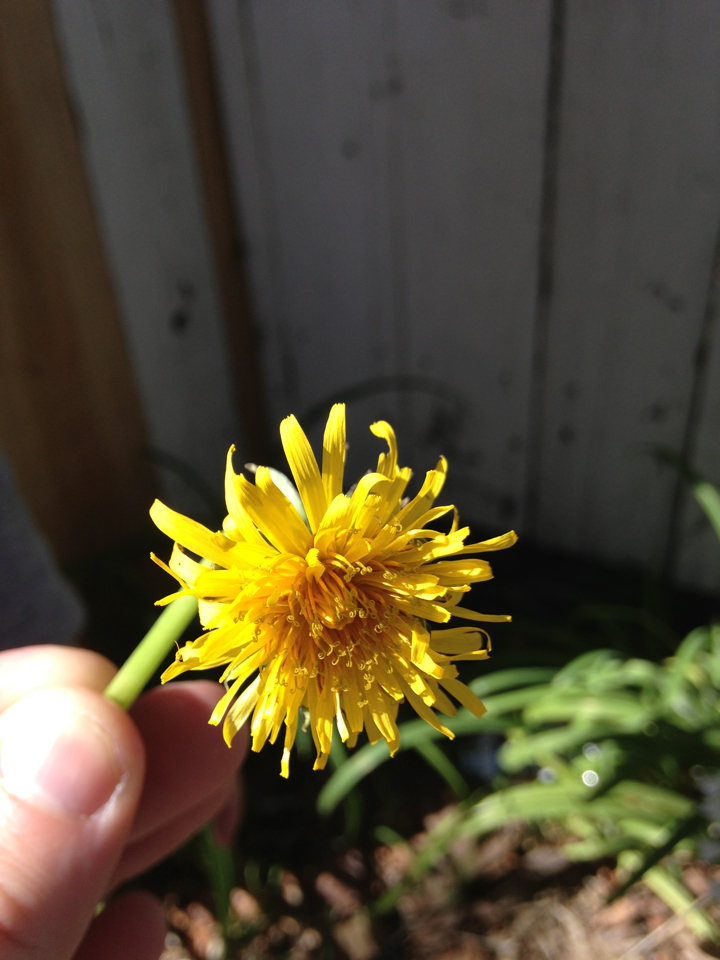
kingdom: Plantae
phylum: Tracheophyta
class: Magnoliopsida
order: Asterales
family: Asteraceae
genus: Taraxacum
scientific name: Taraxacum officinale
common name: Common dandelion
